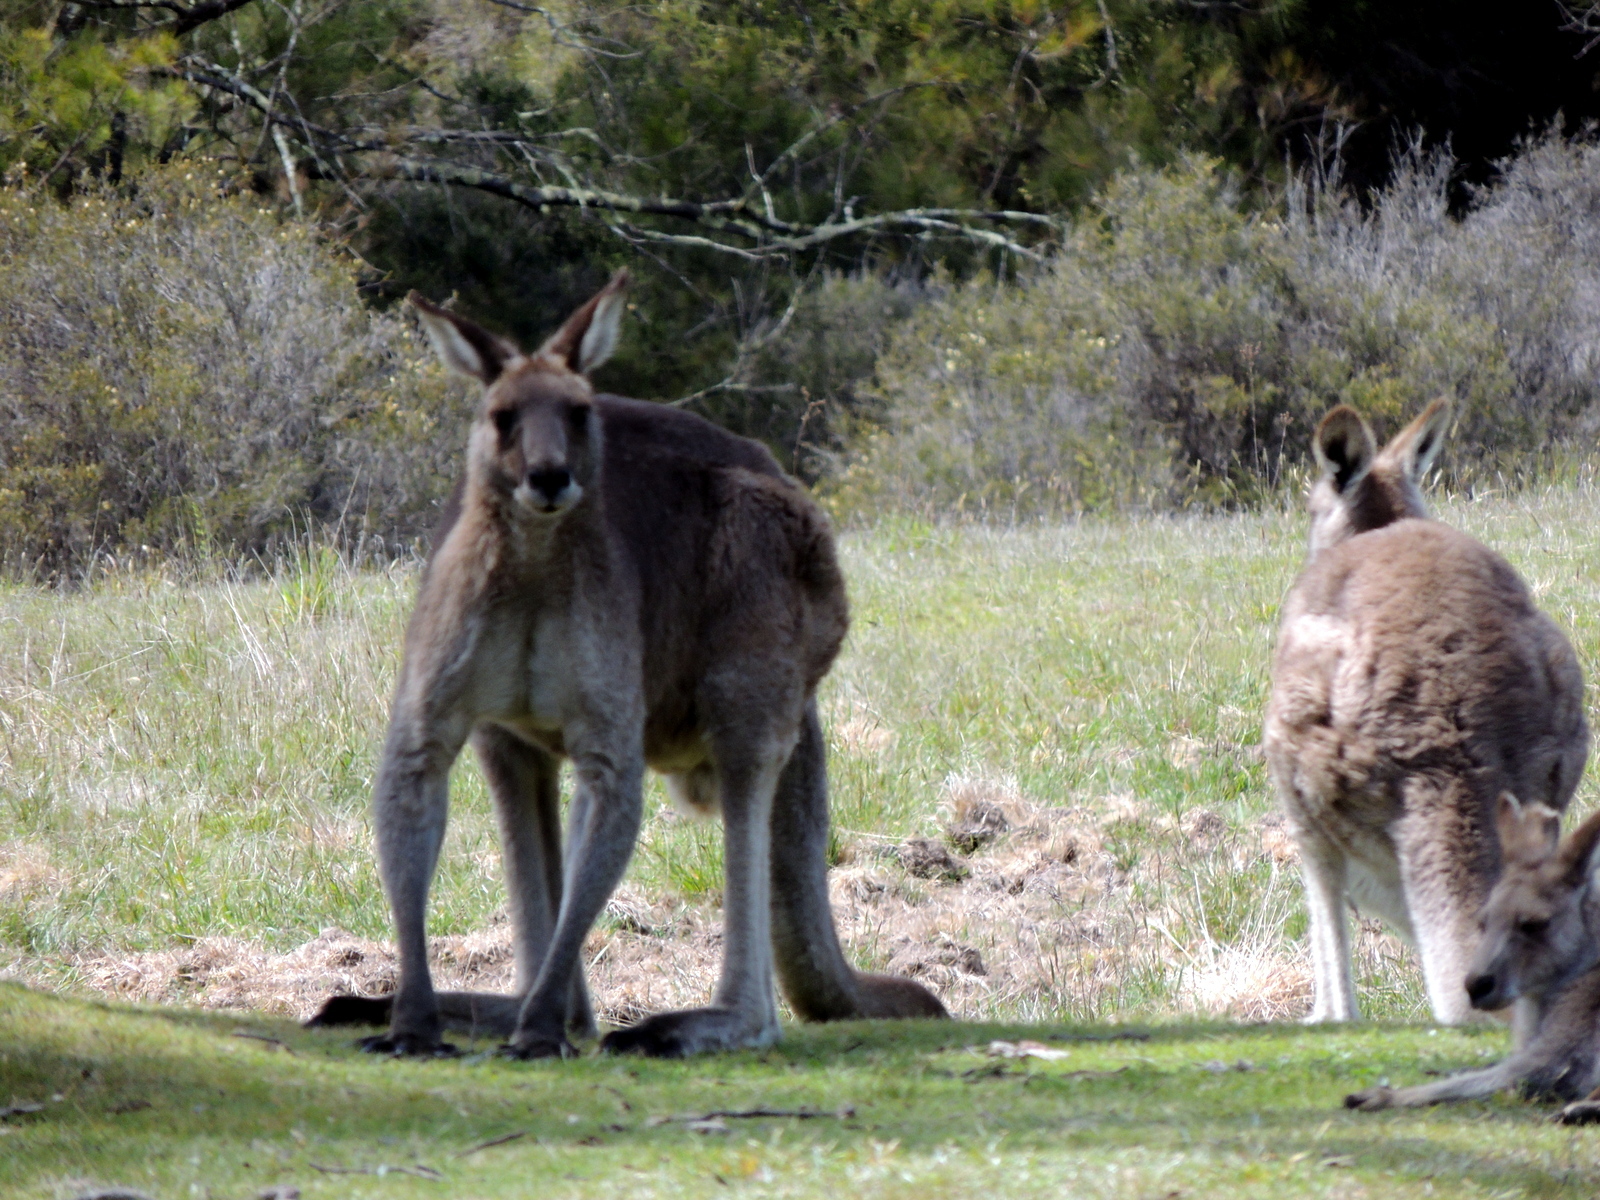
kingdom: Animalia
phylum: Chordata
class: Mammalia
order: Diprotodontia
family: Macropodidae
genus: Macropus
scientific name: Macropus giganteus
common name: Eastern grey kangaroo
